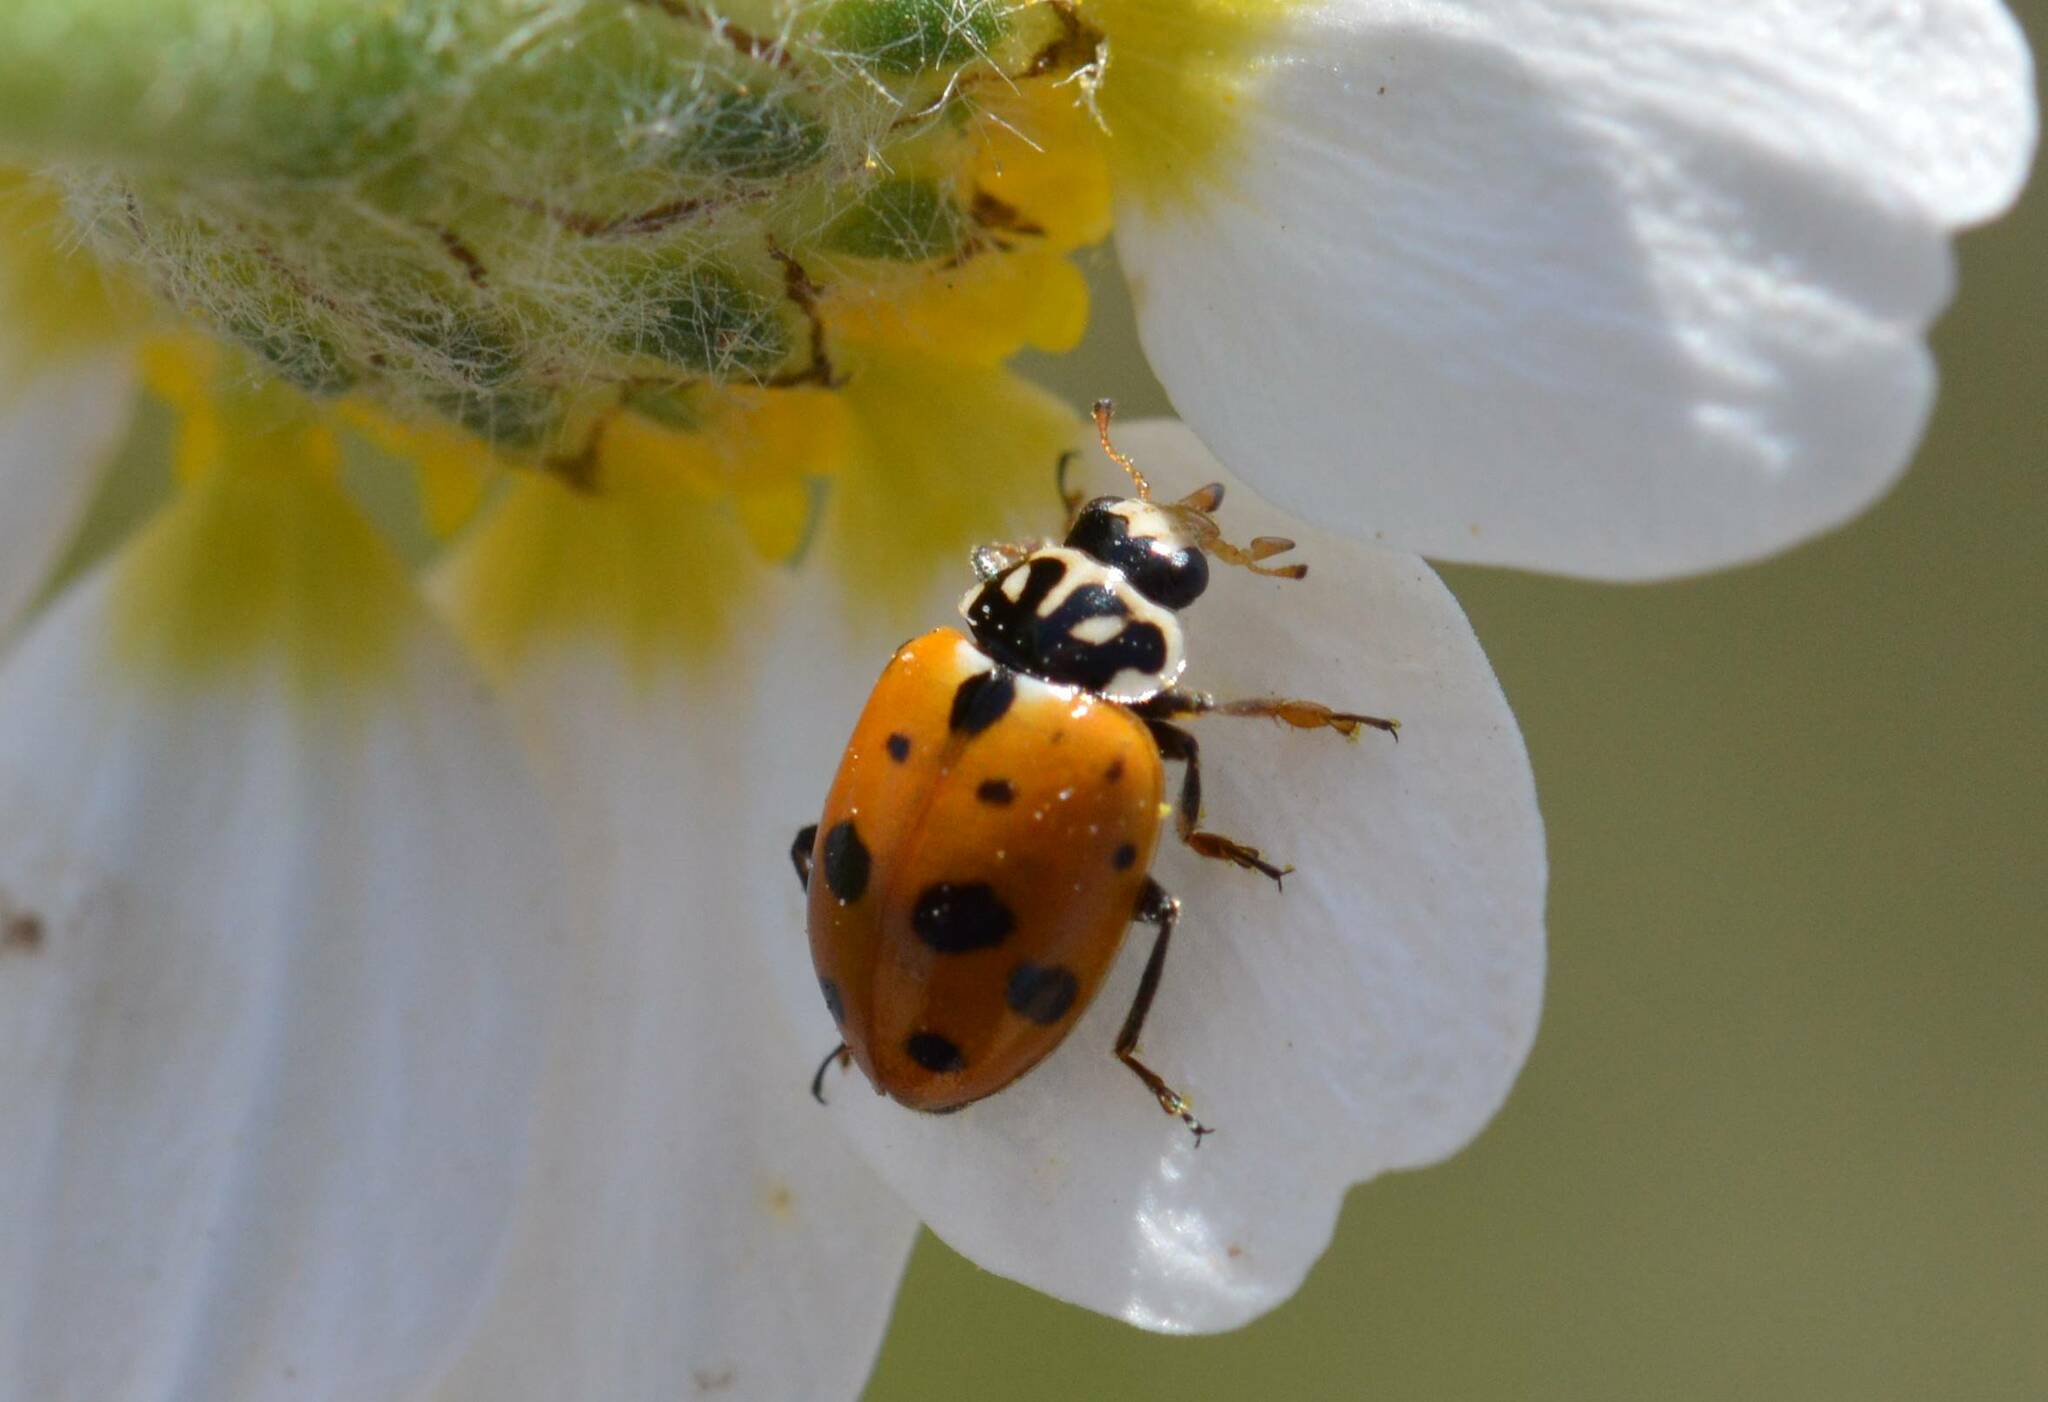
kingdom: Animalia
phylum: Arthropoda
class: Insecta
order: Coleoptera
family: Coccinellidae
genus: Hippodamia
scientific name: Hippodamia variegata
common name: Ladybird beetle
